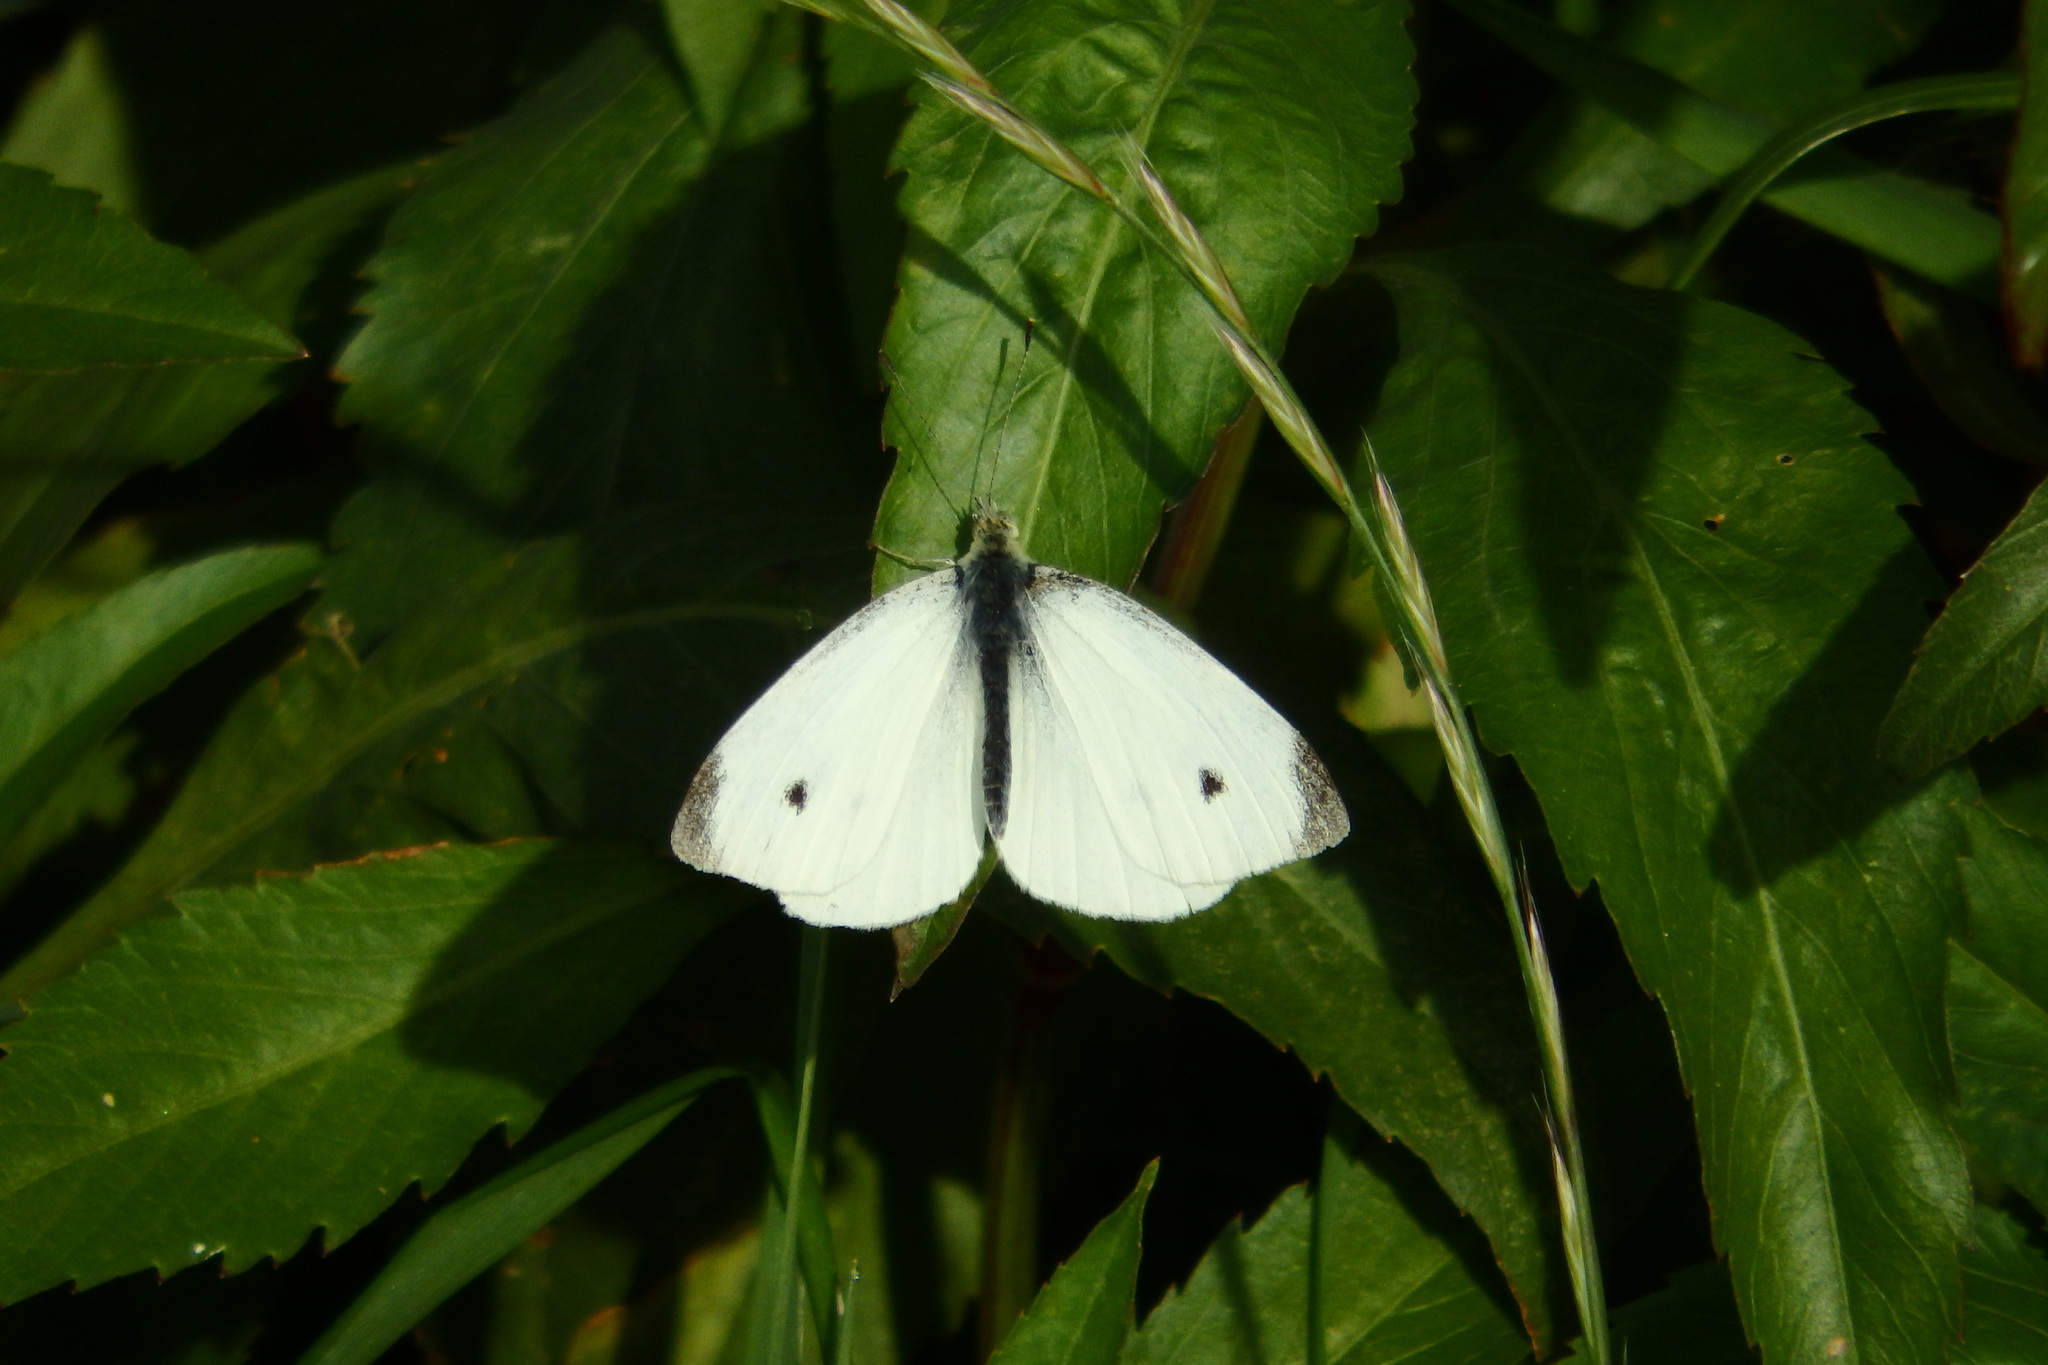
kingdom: Animalia
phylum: Arthropoda
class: Insecta
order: Lepidoptera
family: Pieridae
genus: Pieris
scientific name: Pieris rapae
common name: Small white
